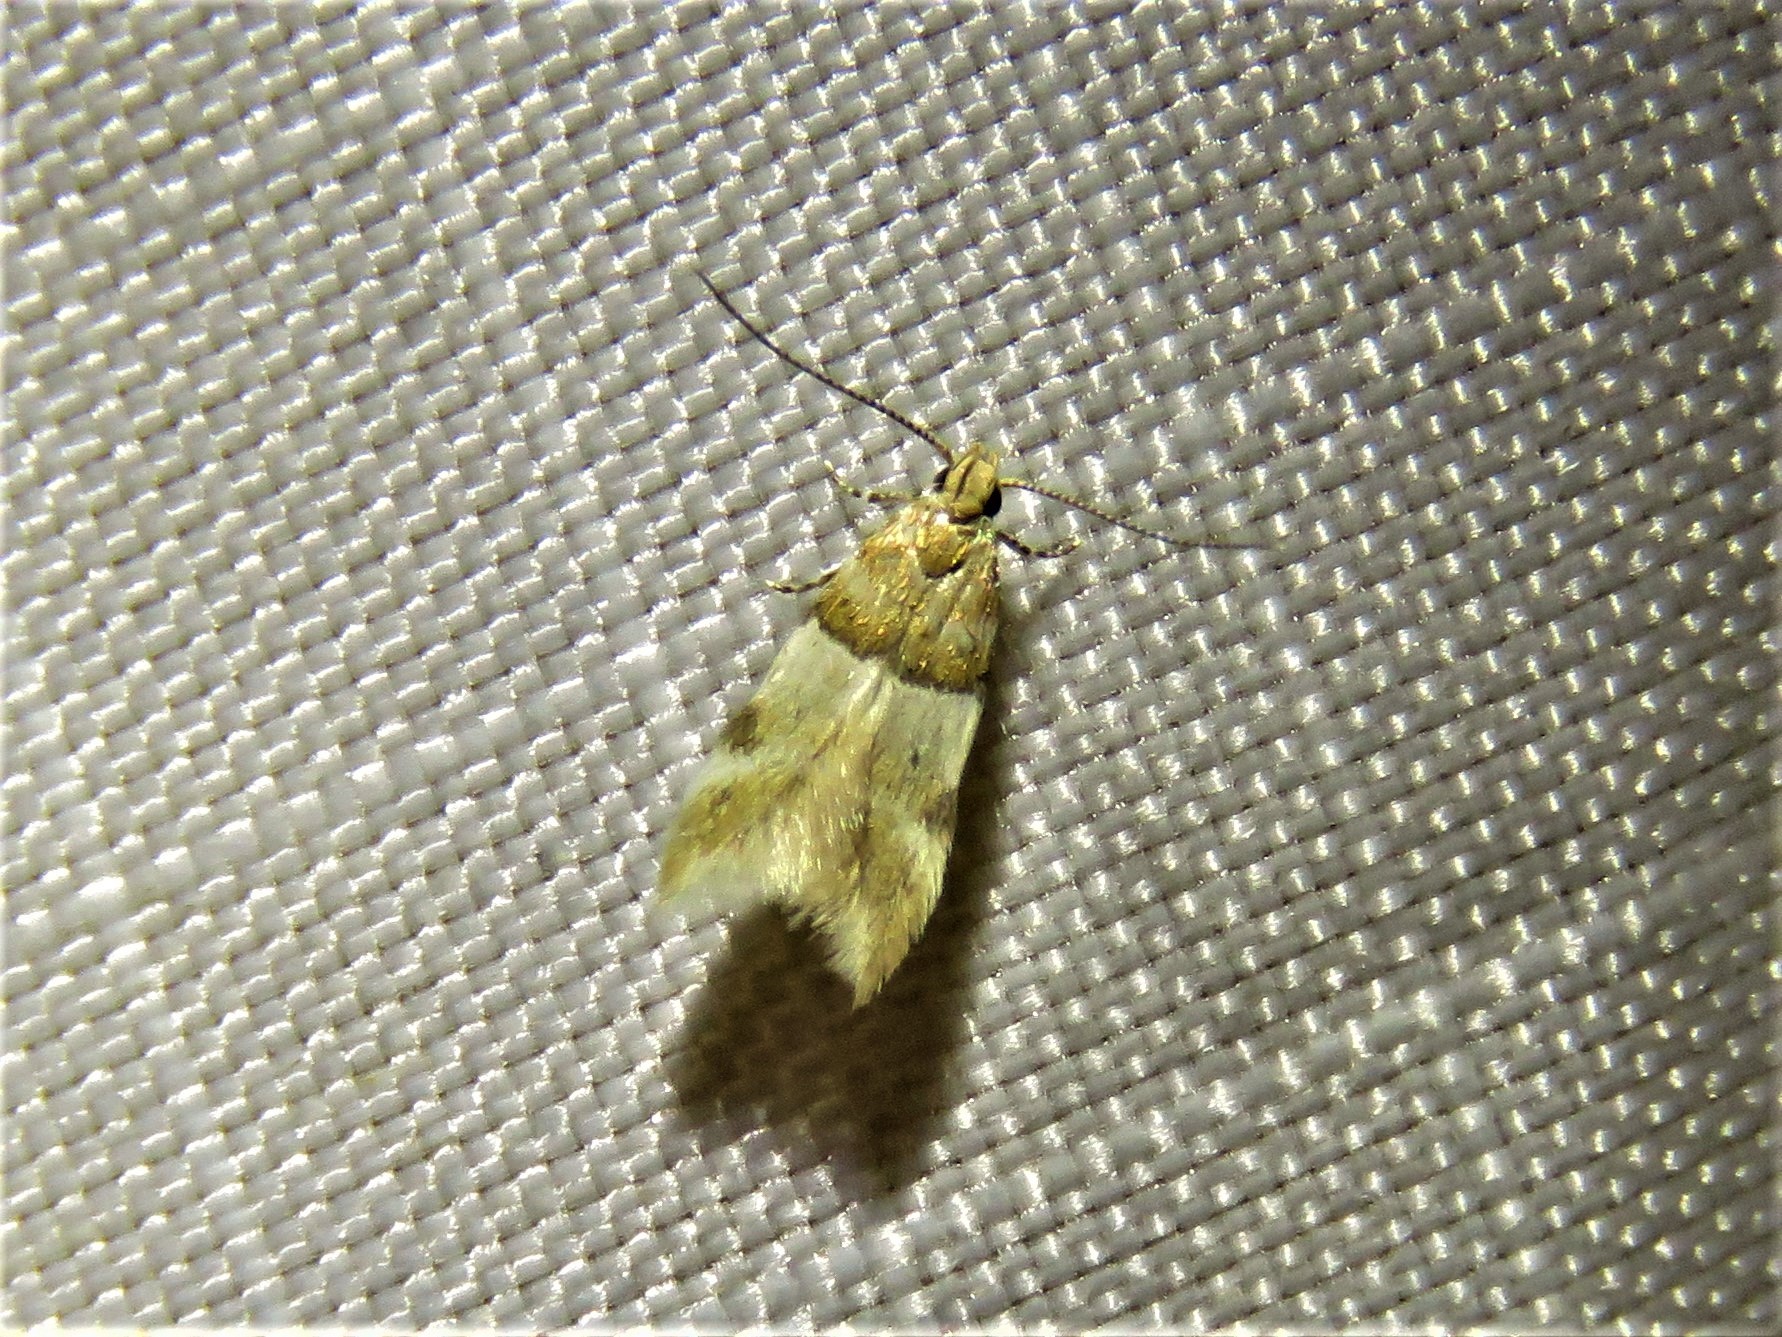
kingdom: Animalia
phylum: Arthropoda
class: Insecta
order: Lepidoptera
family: Gelechiidae
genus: Theisoa
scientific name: Theisoa constrictella
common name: Constricted twirler
